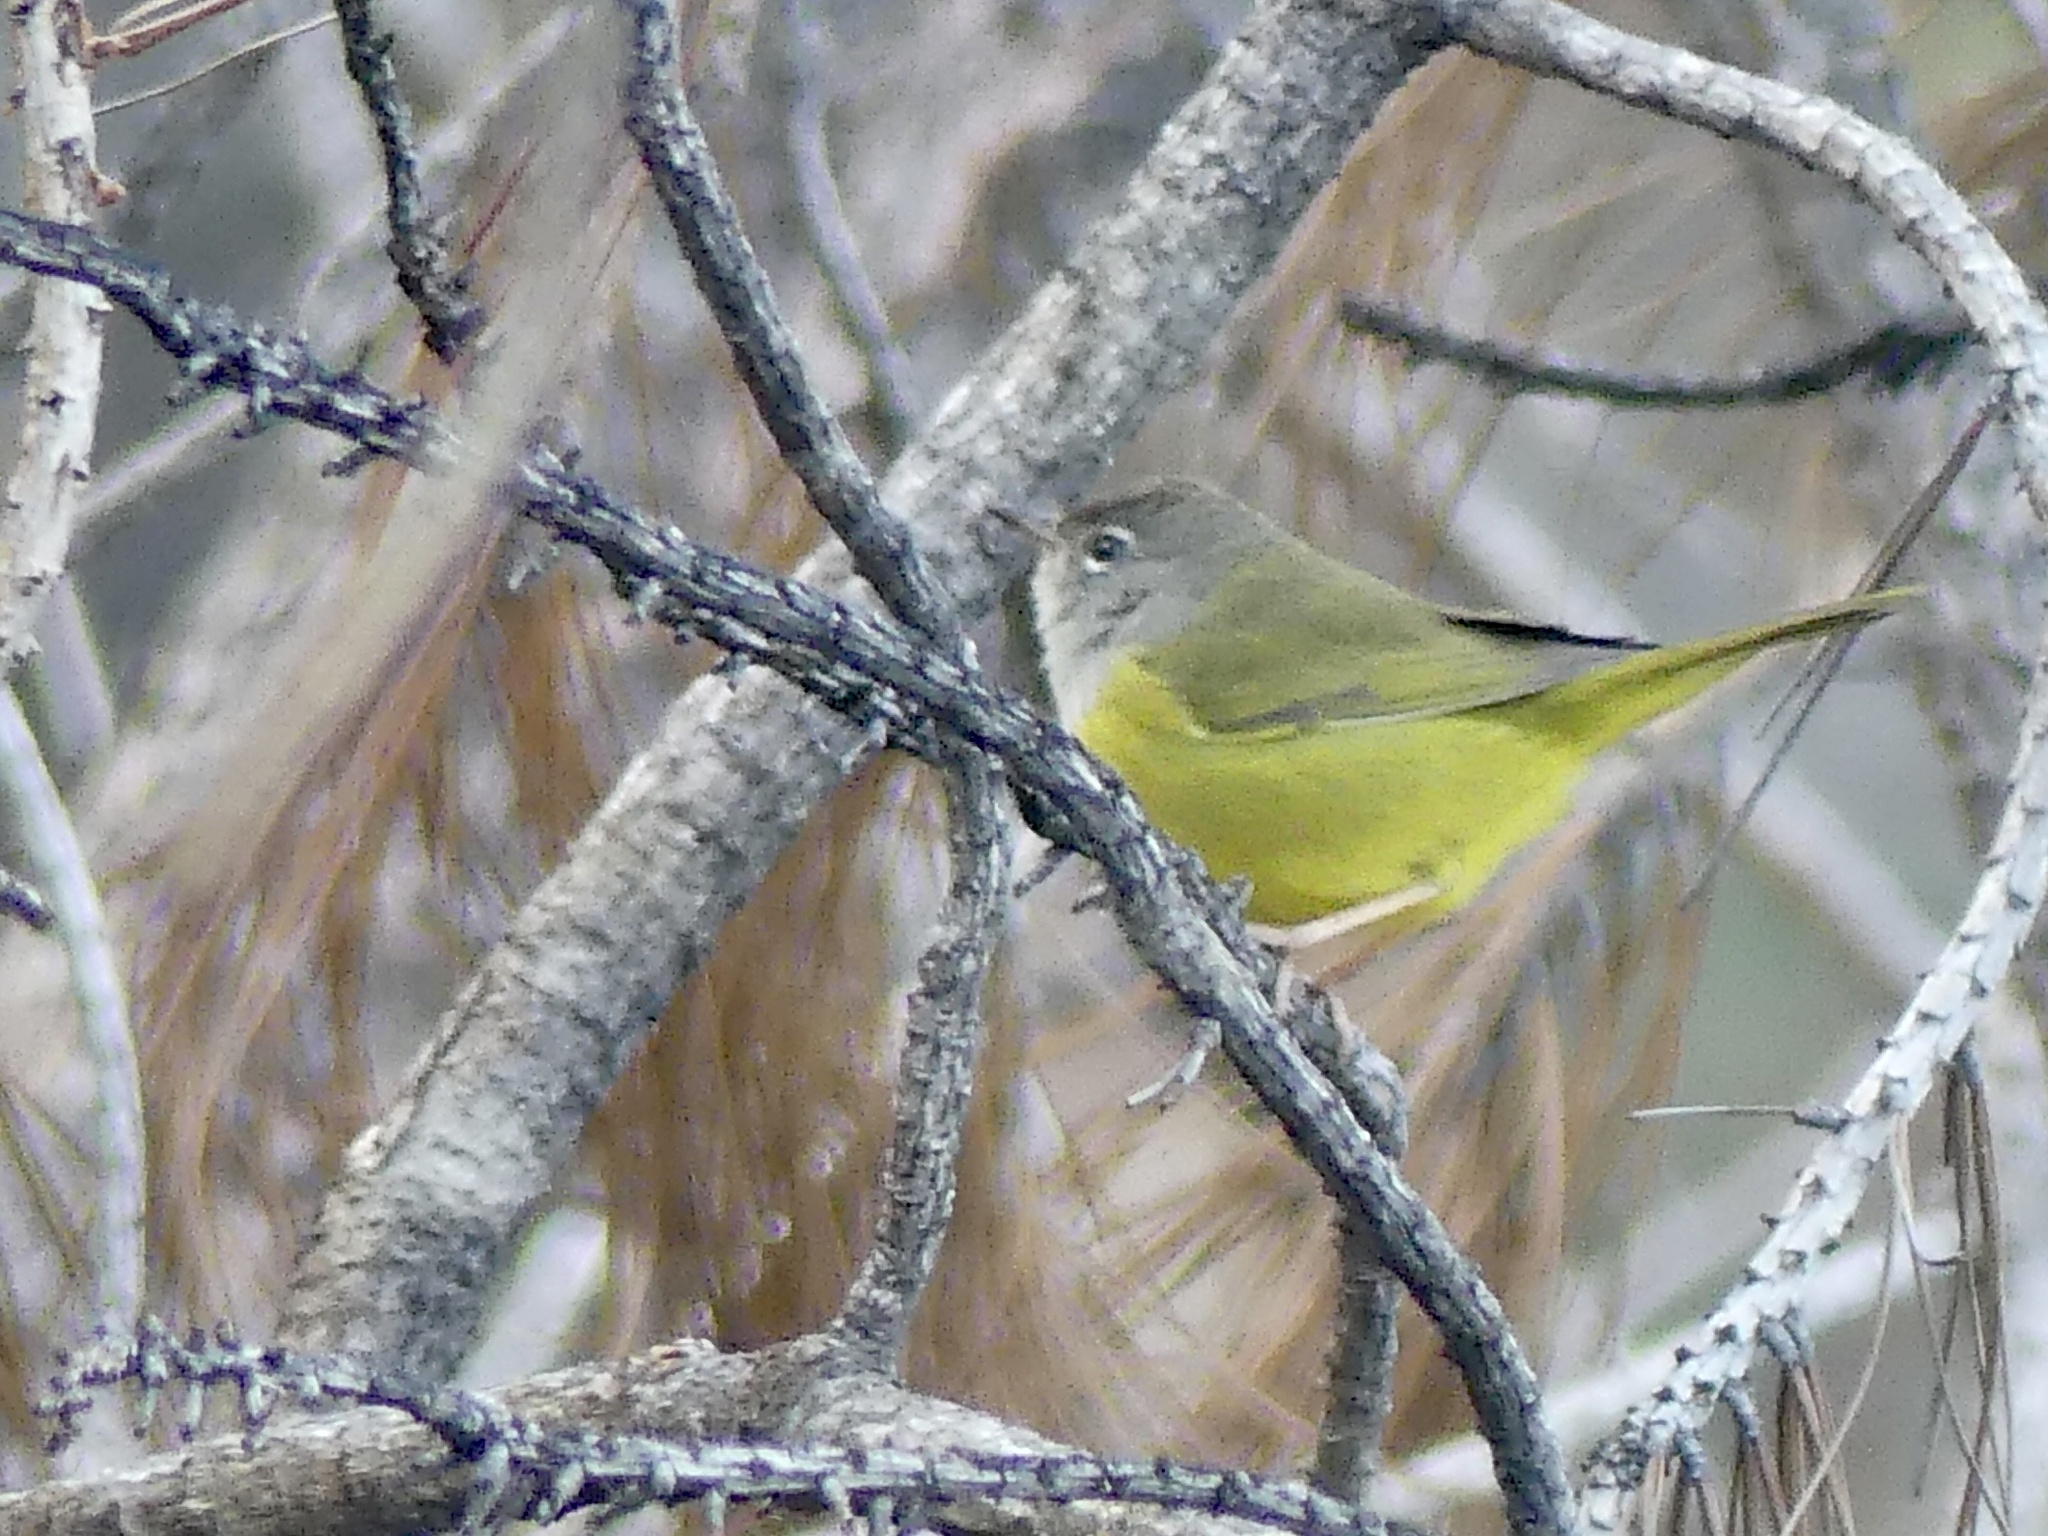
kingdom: Animalia
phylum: Chordata
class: Aves
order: Passeriformes
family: Parulidae
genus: Geothlypis
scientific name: Geothlypis tolmiei
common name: Macgillivray's warbler
